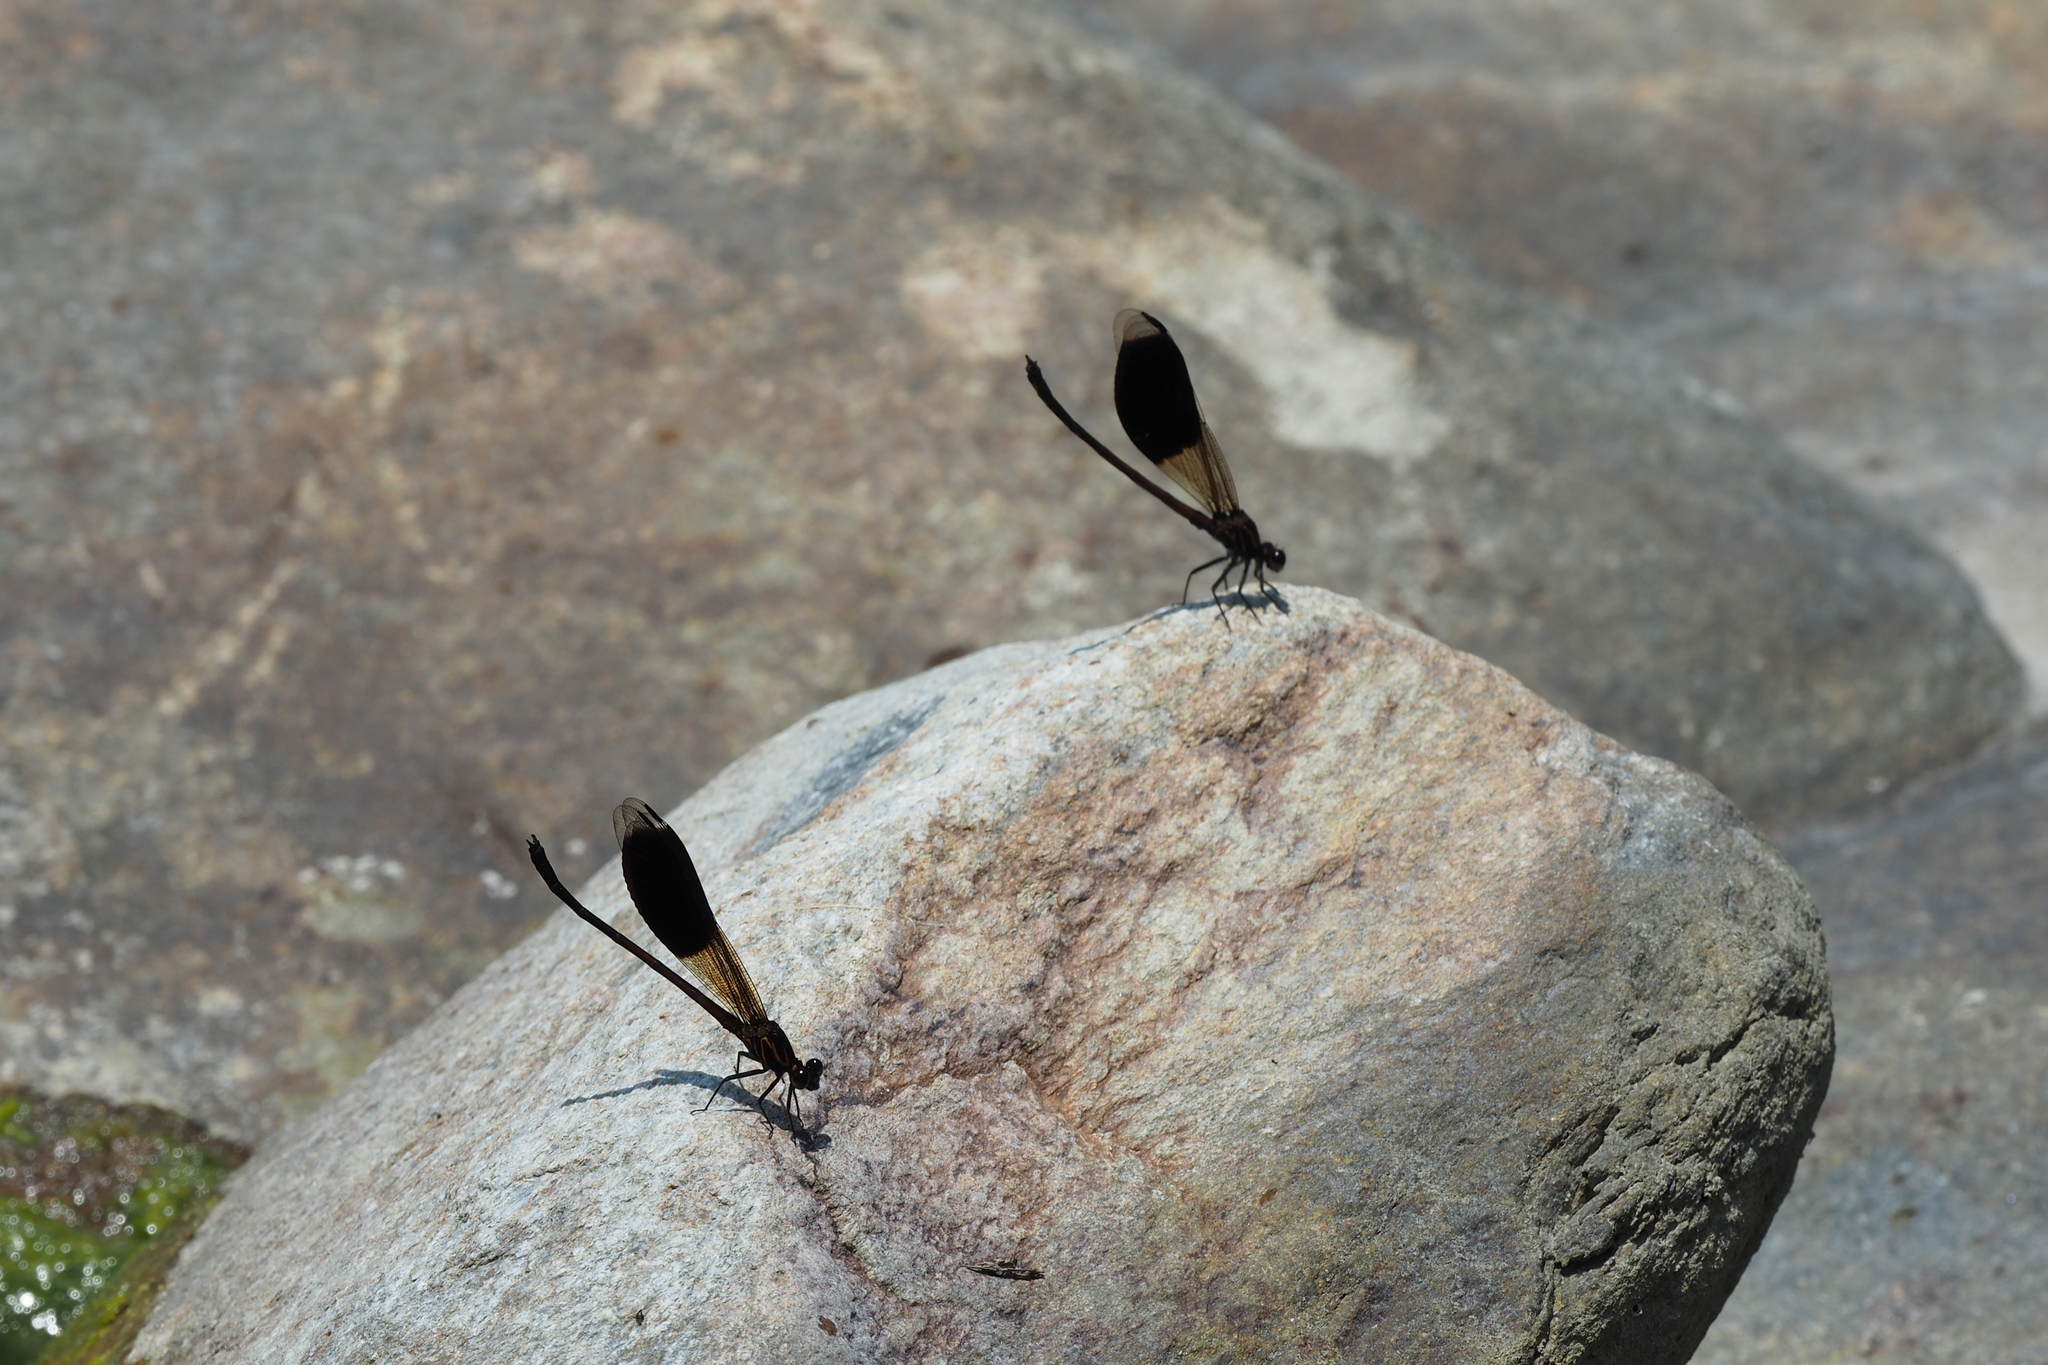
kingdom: Animalia
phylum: Arthropoda
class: Insecta
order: Odonata
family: Euphaeidae
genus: Euphaea
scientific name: Euphaea formosa
